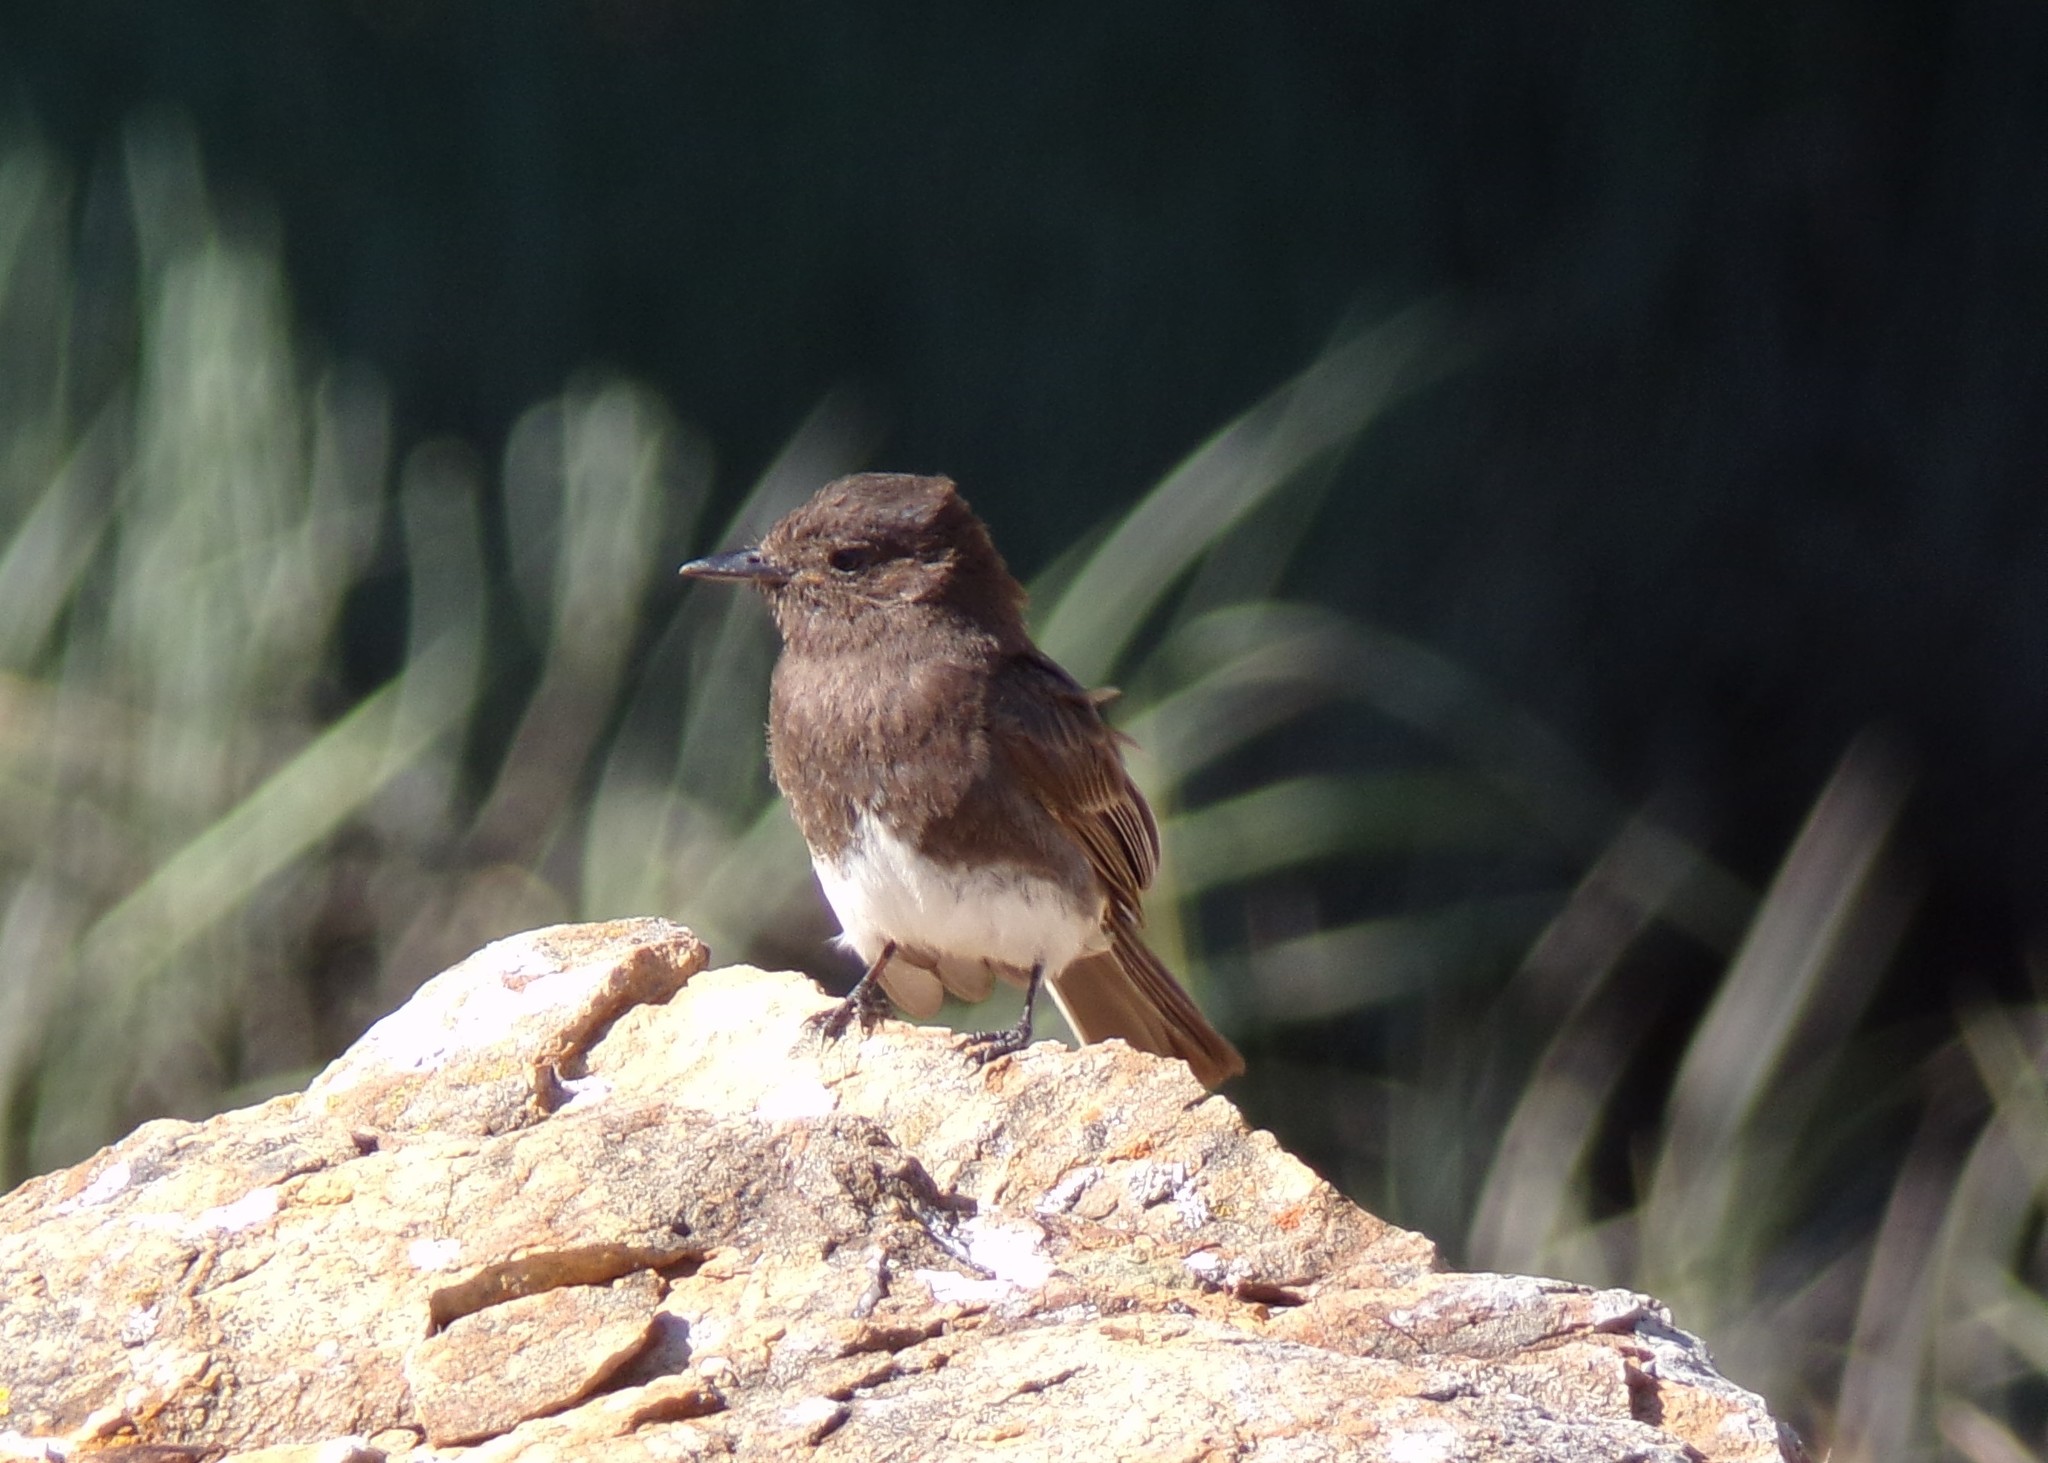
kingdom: Animalia
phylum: Chordata
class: Aves
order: Passeriformes
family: Tyrannidae
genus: Sayornis
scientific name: Sayornis nigricans
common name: Black phoebe
